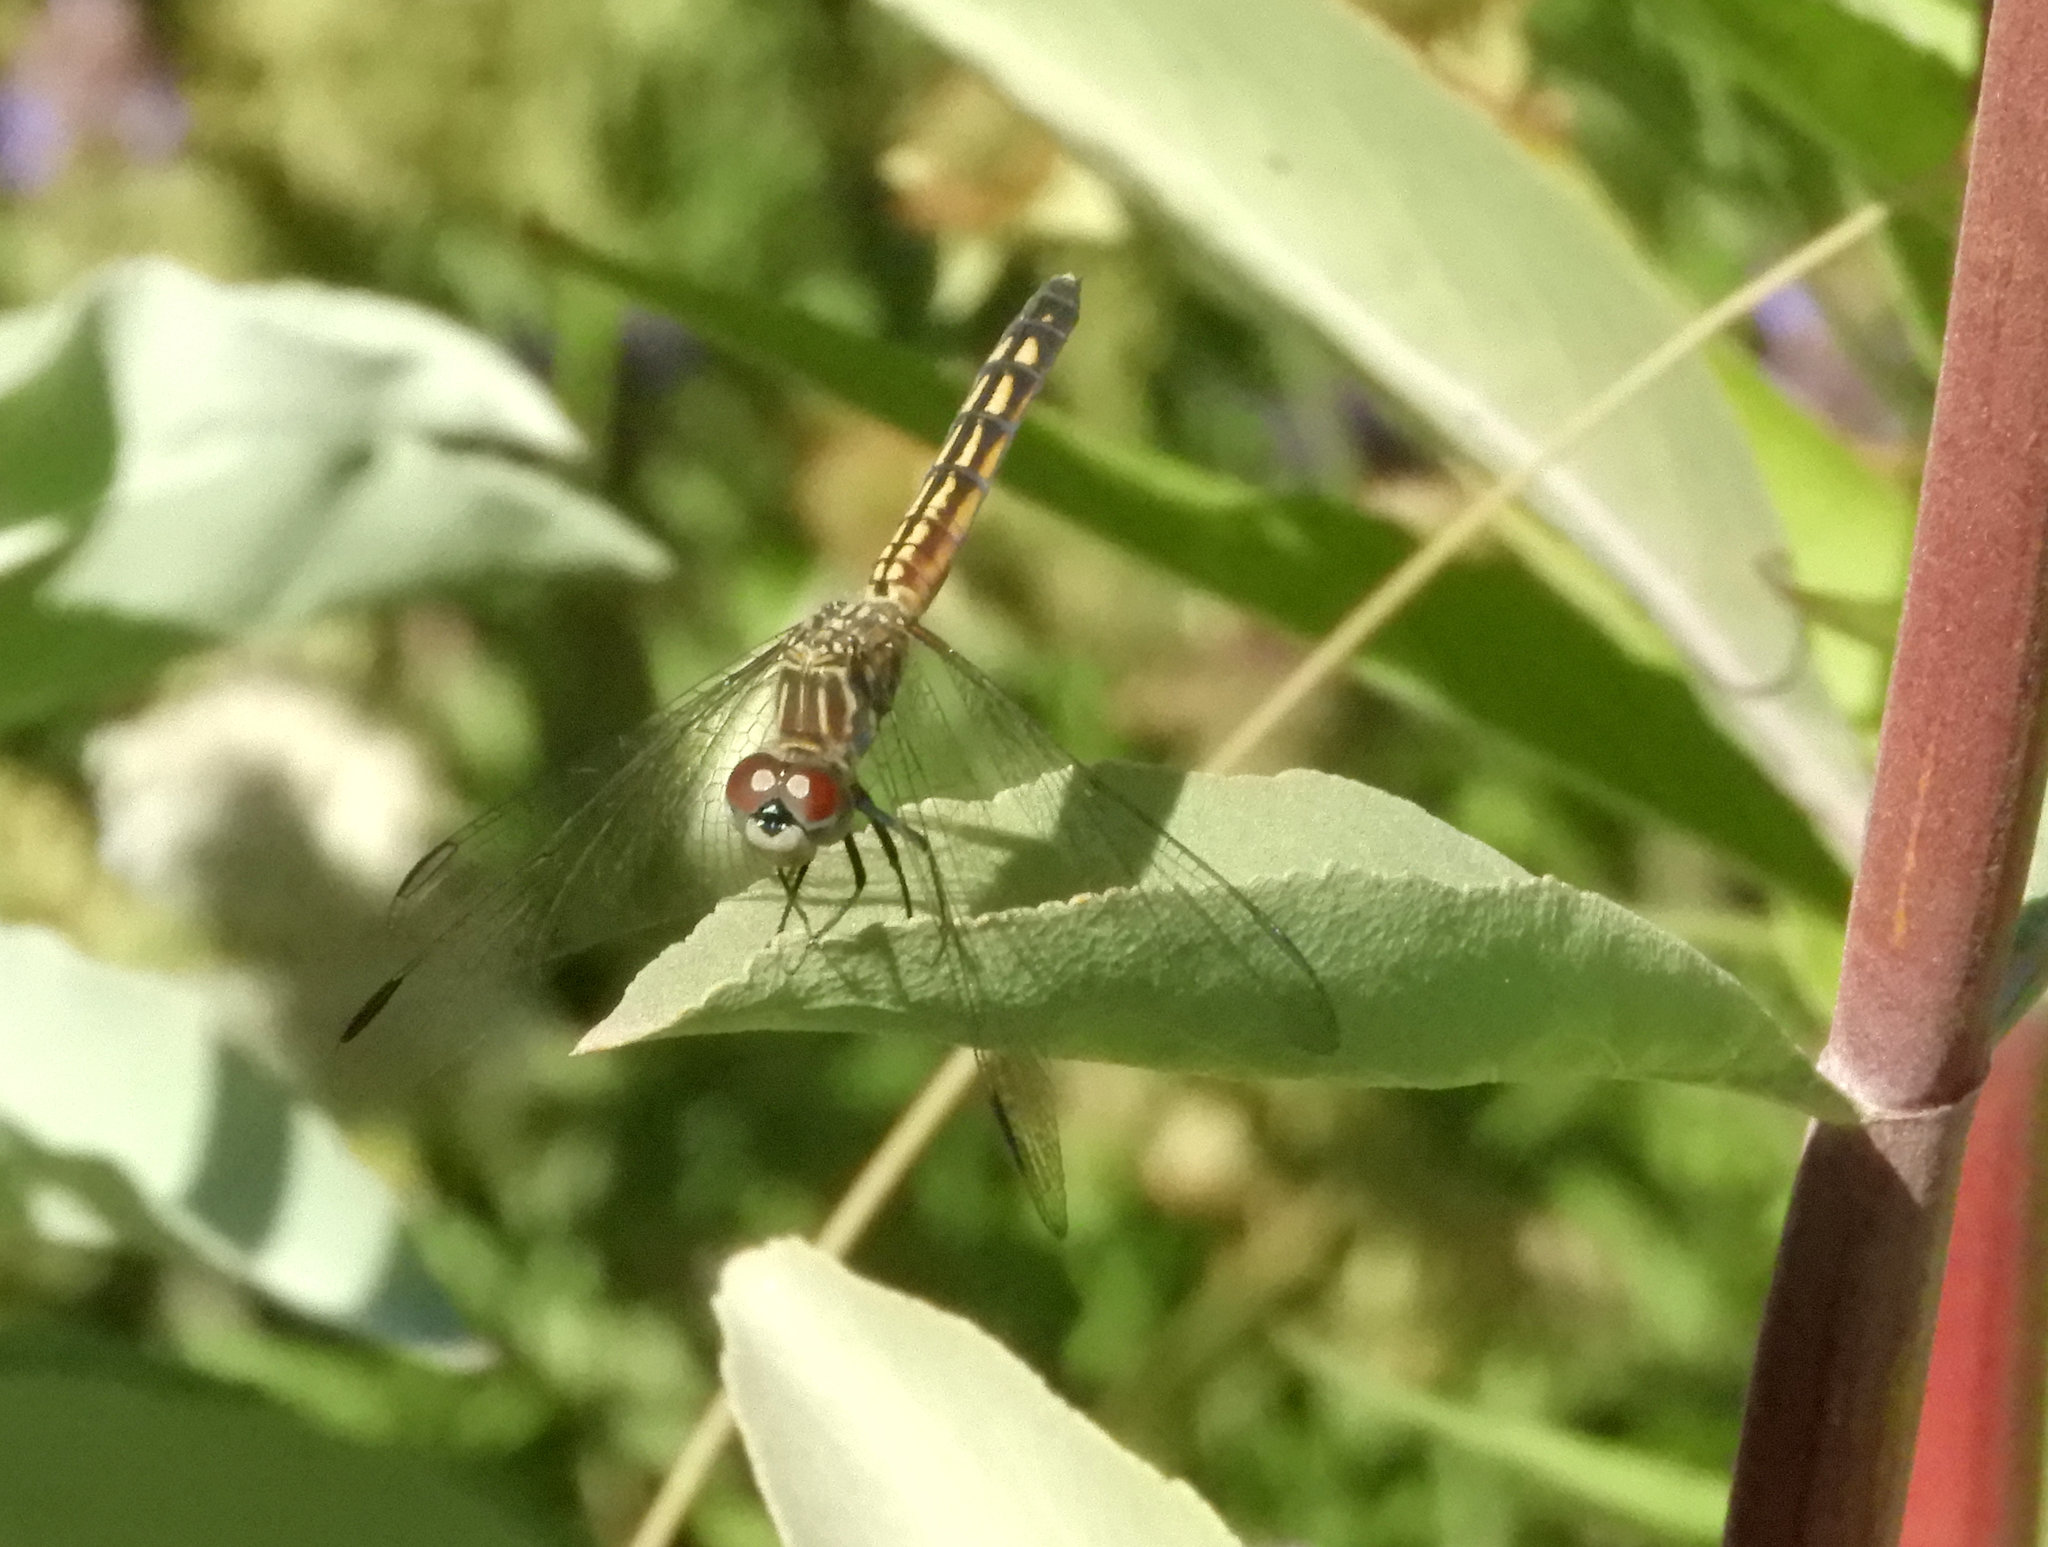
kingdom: Animalia
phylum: Arthropoda
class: Insecta
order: Odonata
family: Libellulidae
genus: Pachydiplax
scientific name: Pachydiplax longipennis
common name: Blue dasher
